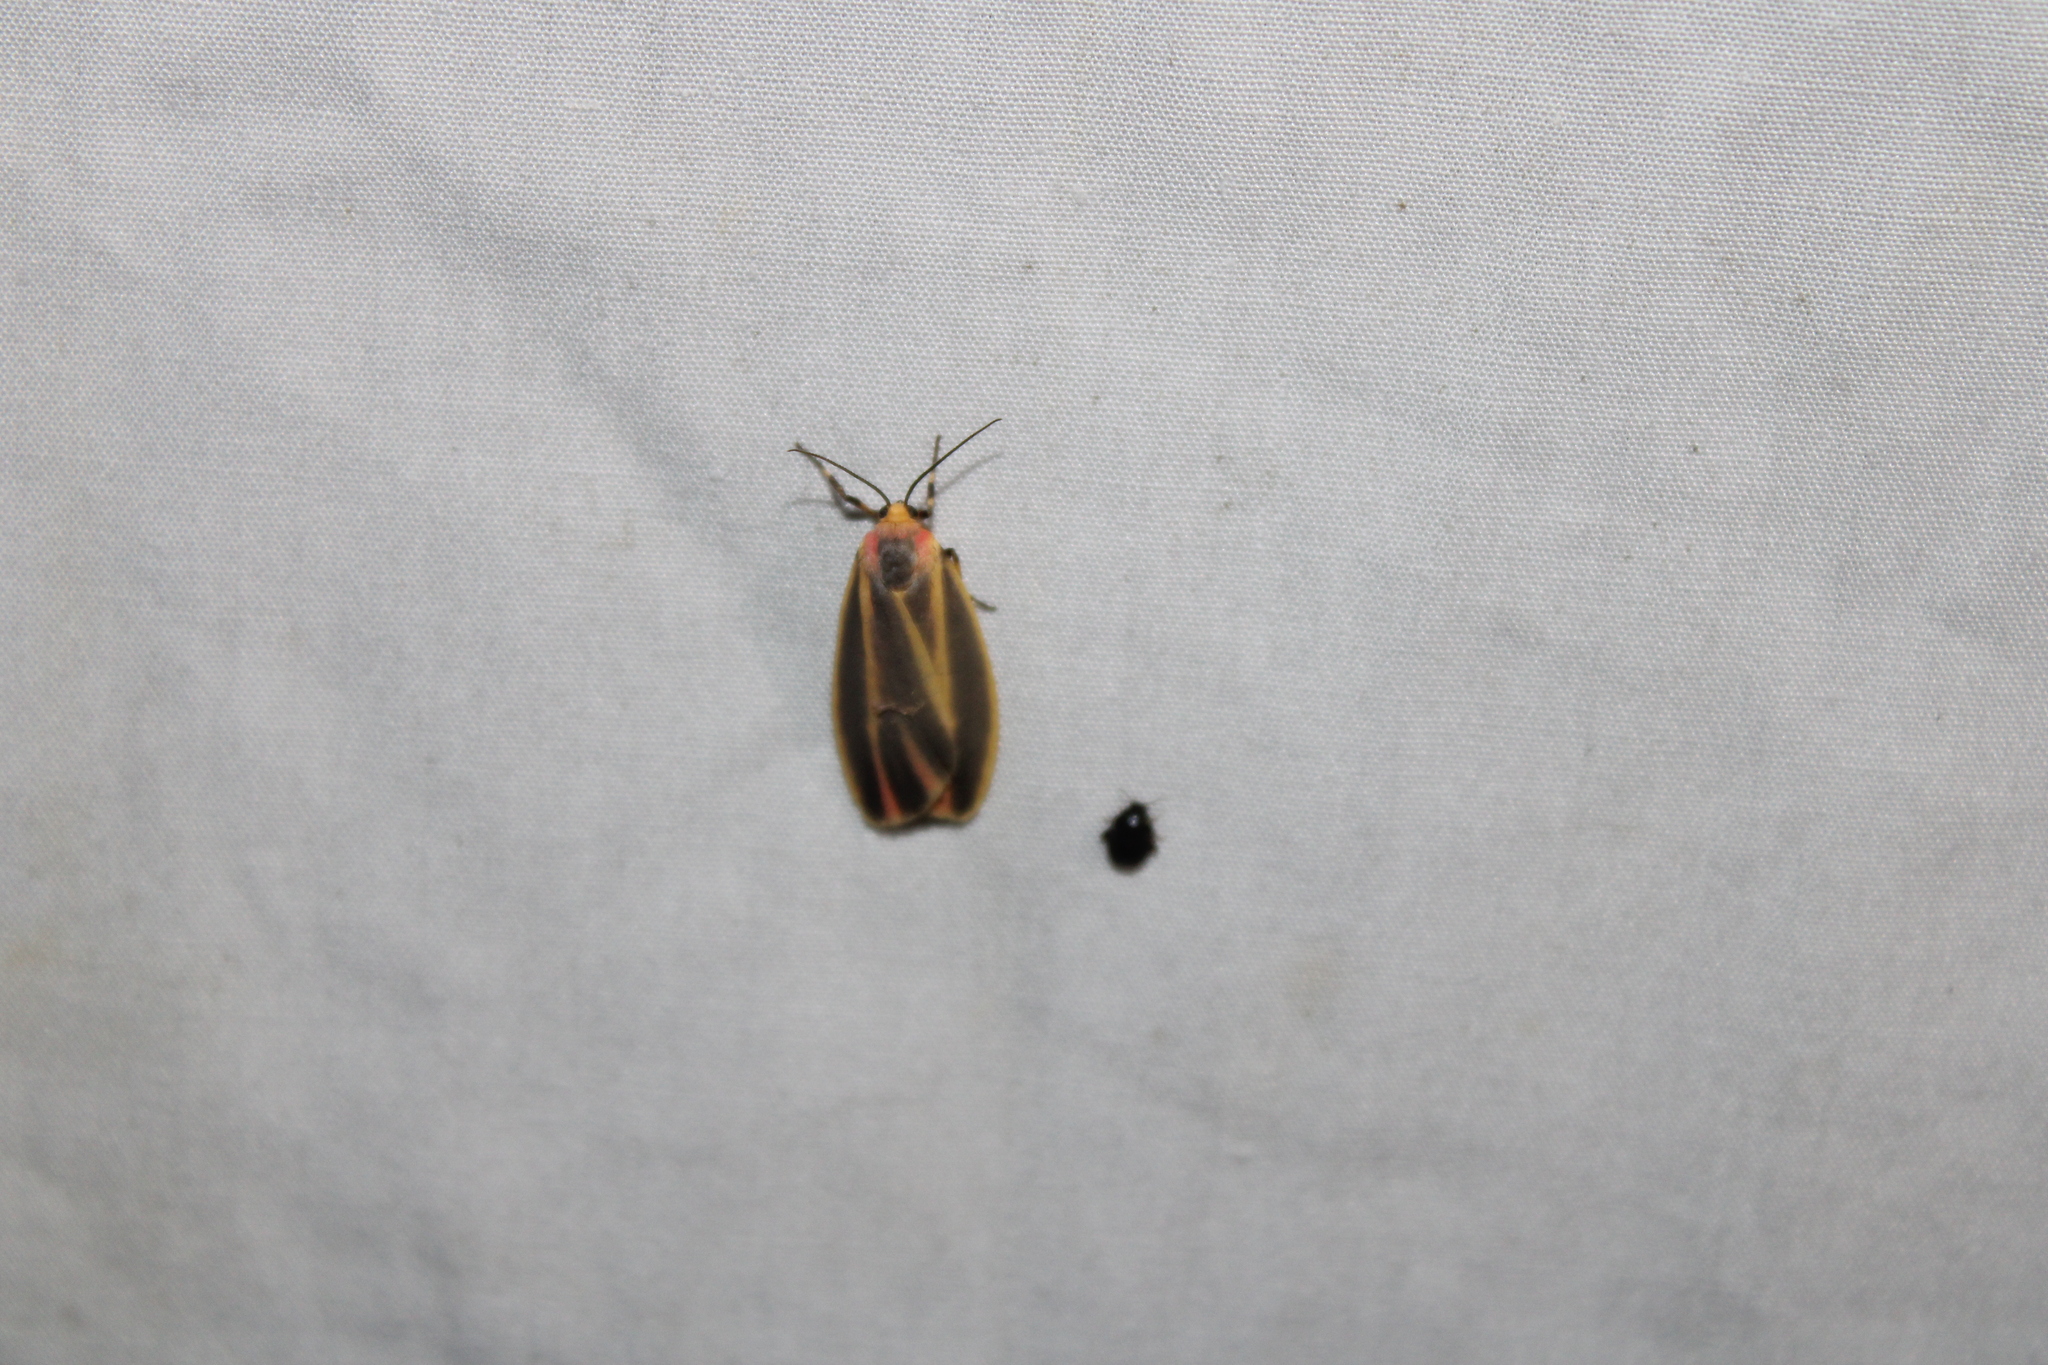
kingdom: Animalia
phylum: Arthropoda
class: Insecta
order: Lepidoptera
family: Erebidae
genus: Hypoprepia
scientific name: Hypoprepia fucosa
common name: Painted lichen moth
